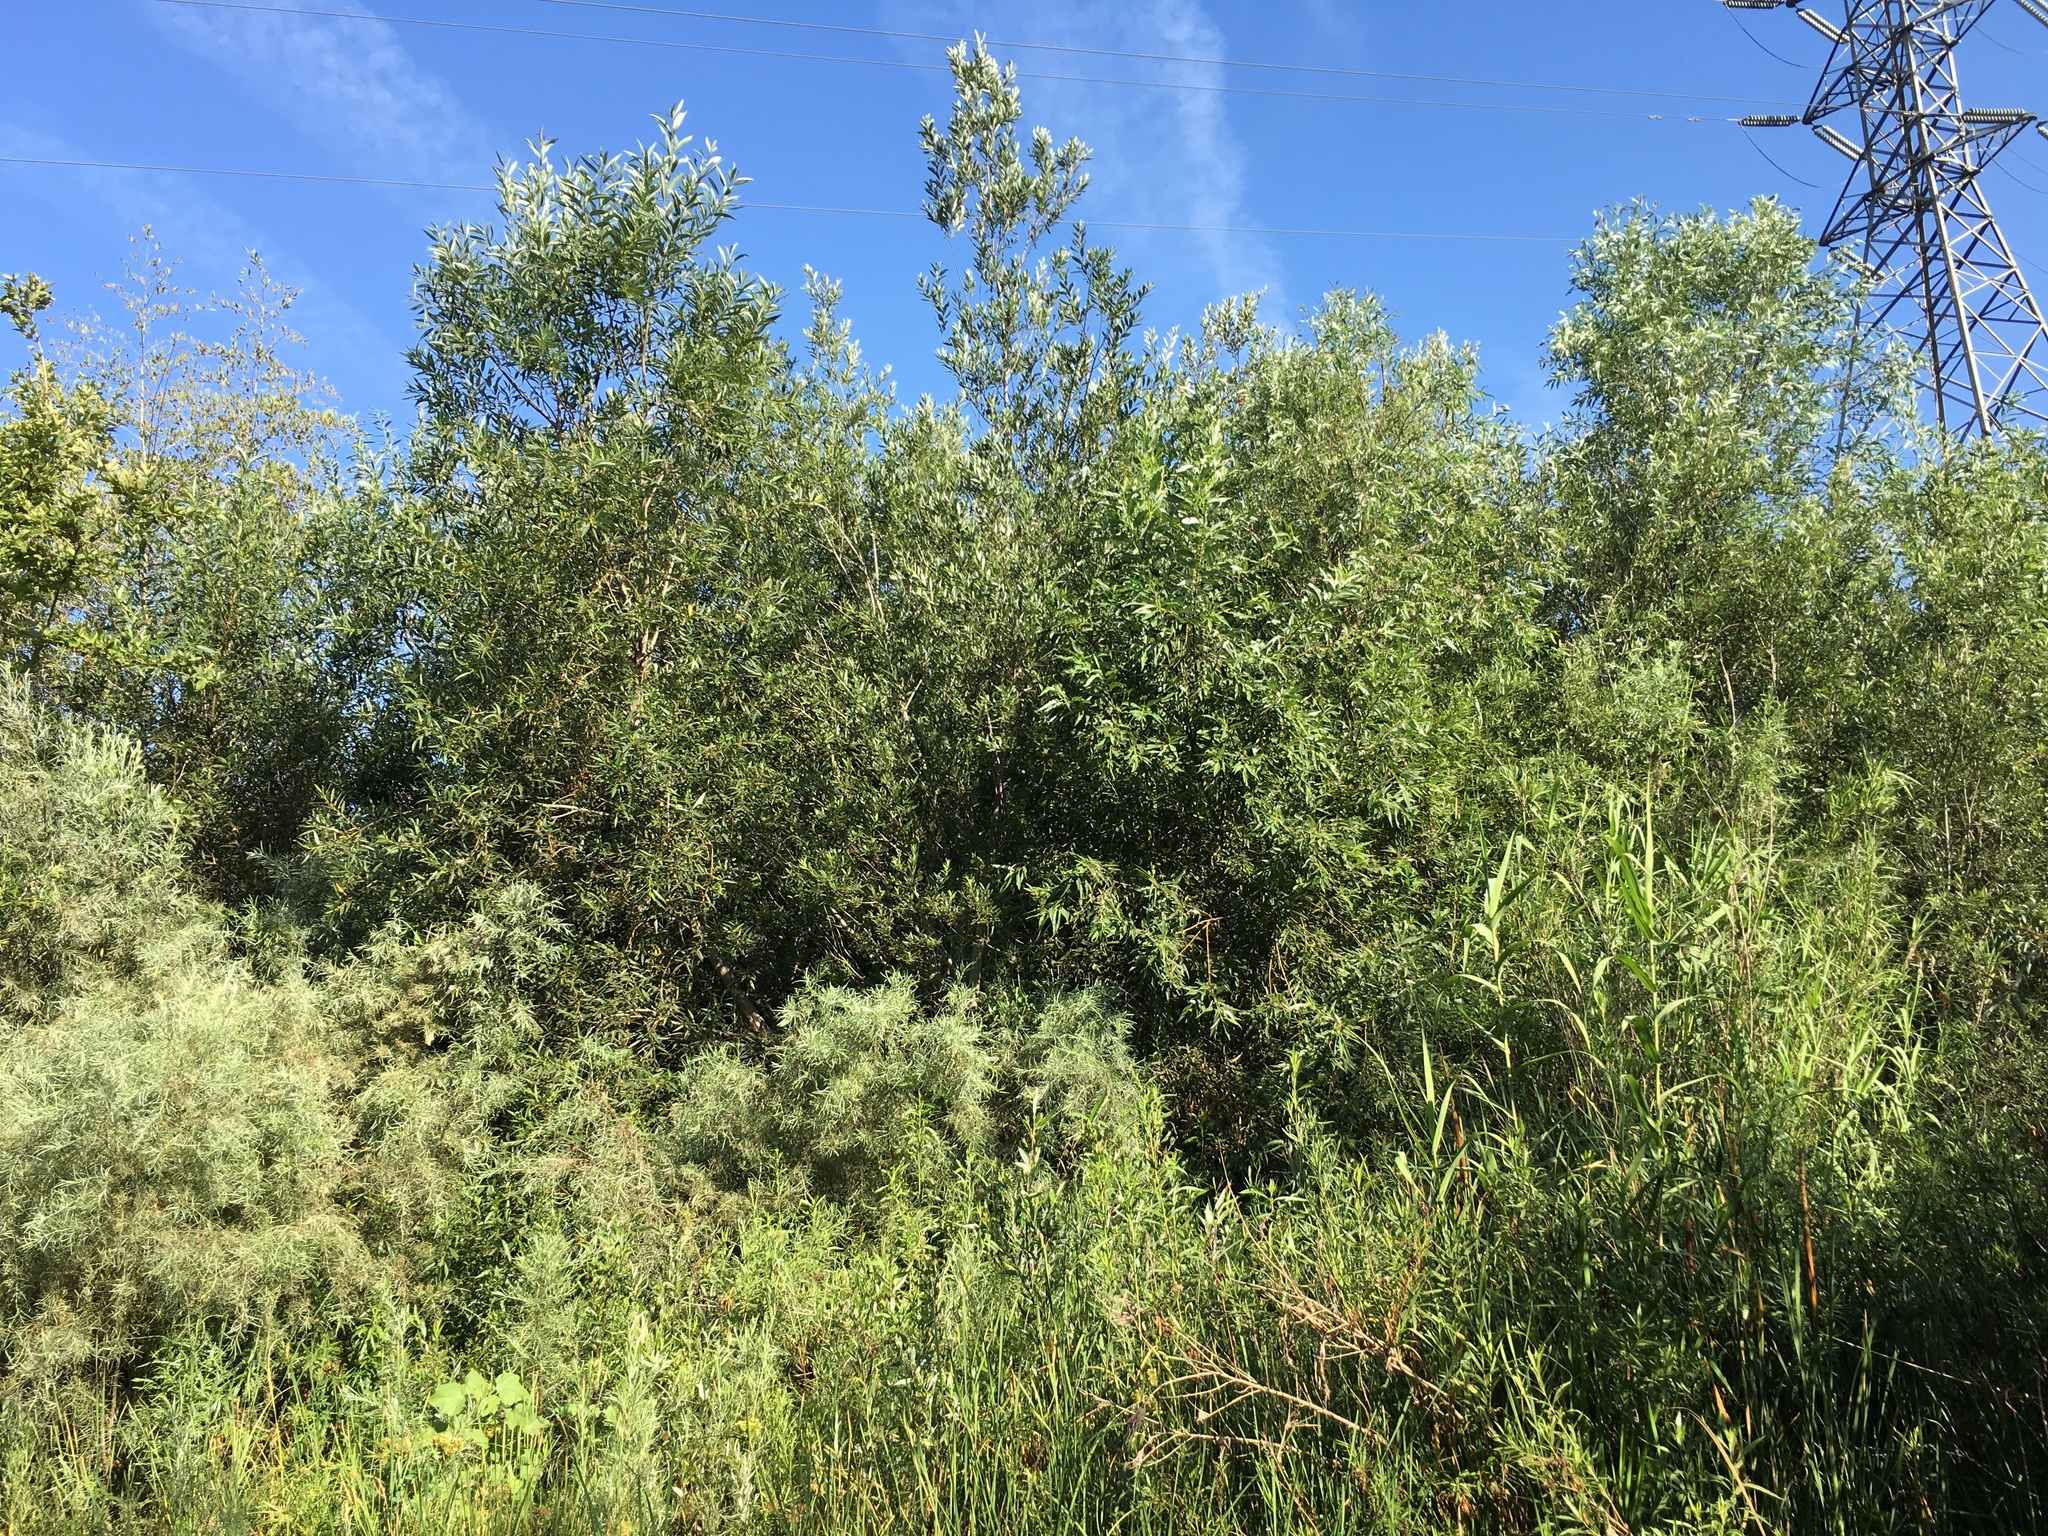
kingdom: Plantae
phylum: Tracheophyta
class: Liliopsida
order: Poales
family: Poaceae
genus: Arundo
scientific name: Arundo donax
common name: Giant reed
